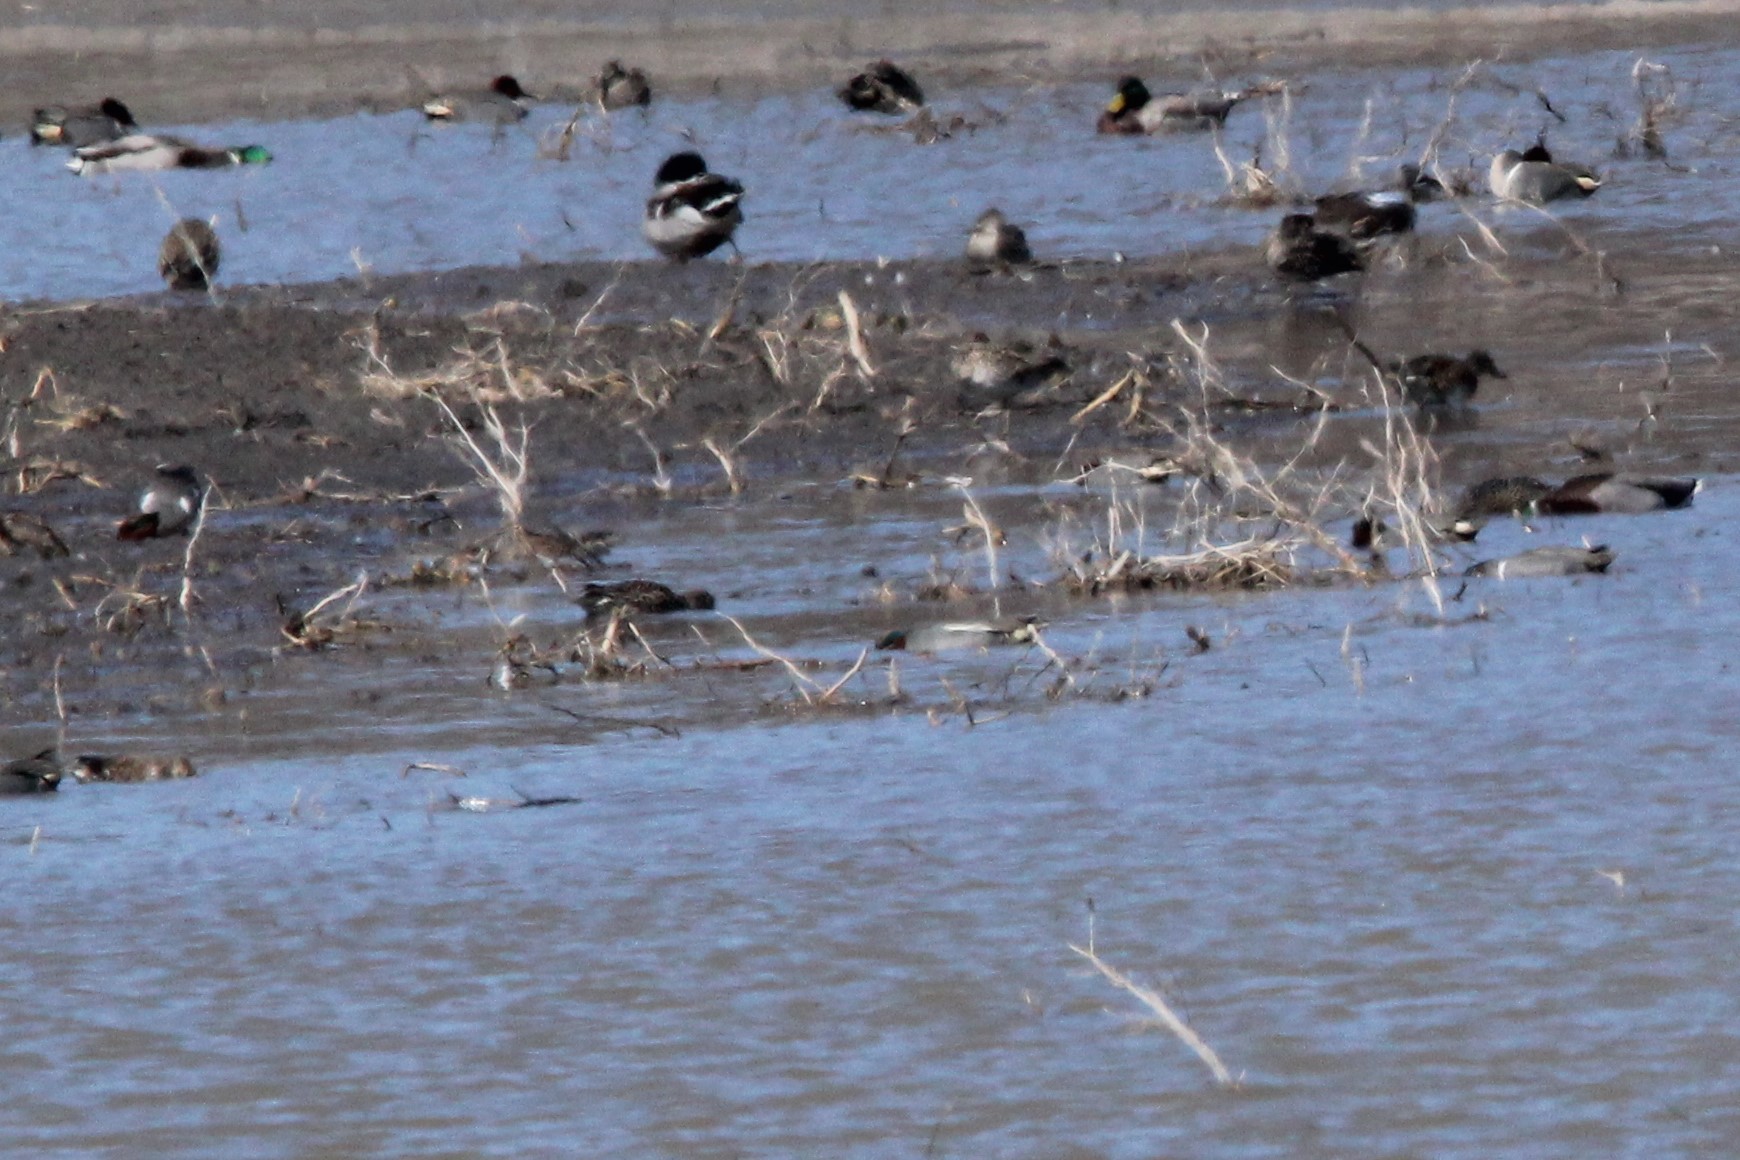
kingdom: Animalia
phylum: Chordata
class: Aves
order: Anseriformes
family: Anatidae
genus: Anas
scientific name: Anas crecca
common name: Eurasian teal
